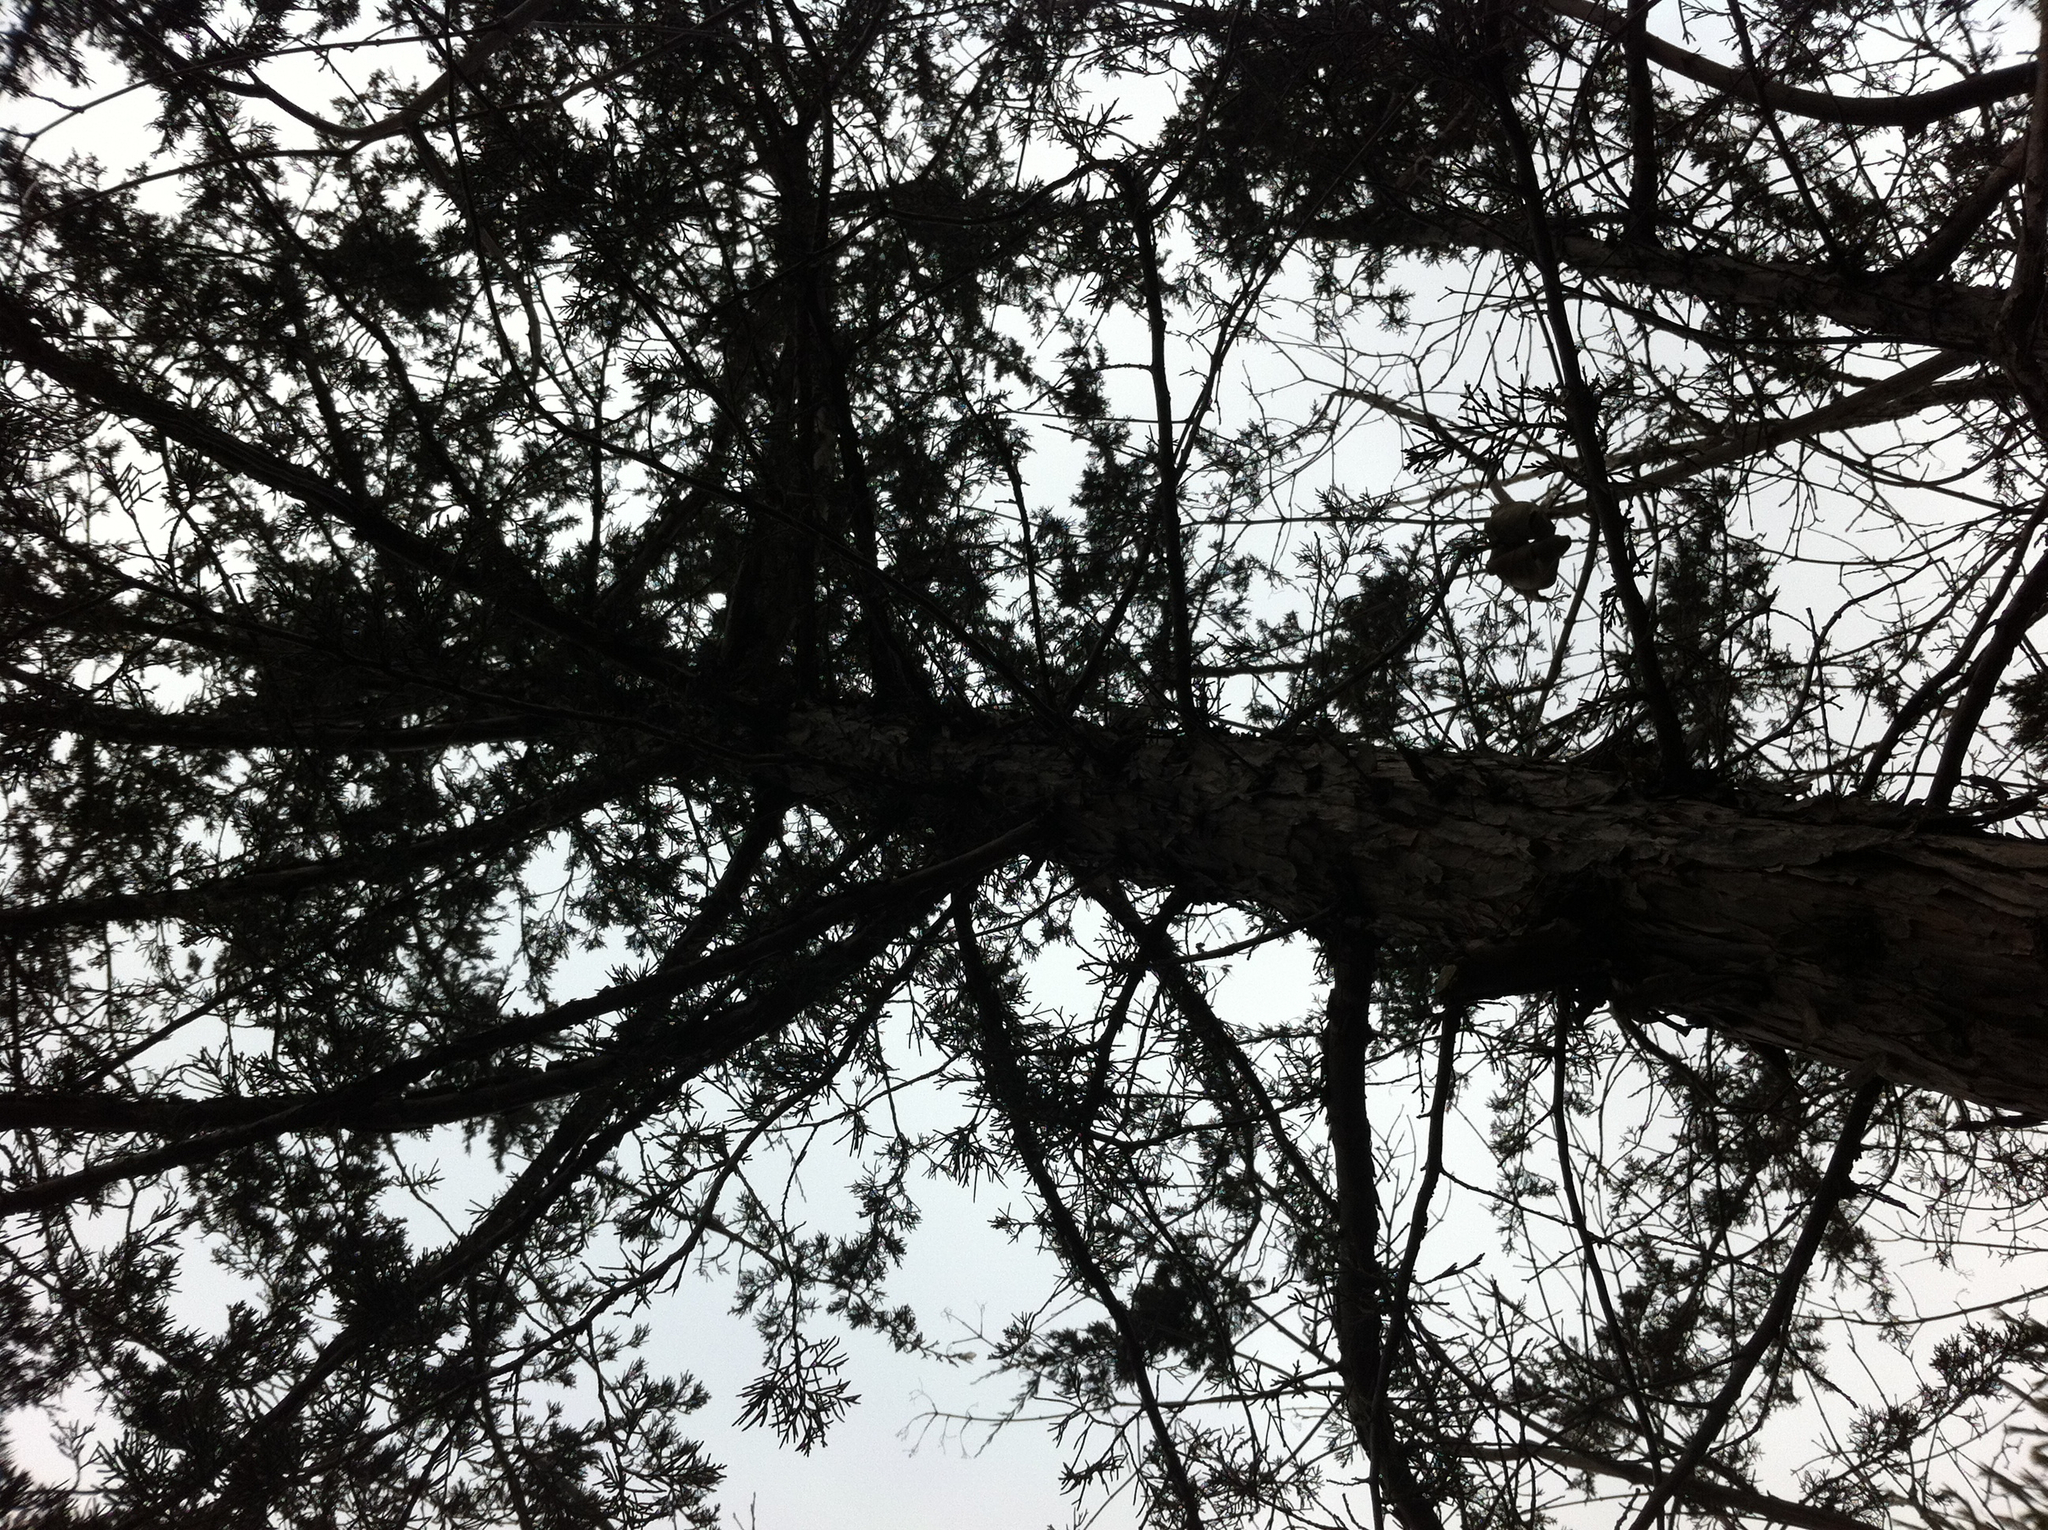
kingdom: Plantae
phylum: Tracheophyta
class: Pinopsida
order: Pinales
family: Cupressaceae
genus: Juniperus
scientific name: Juniperus virginiana
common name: Red juniper
